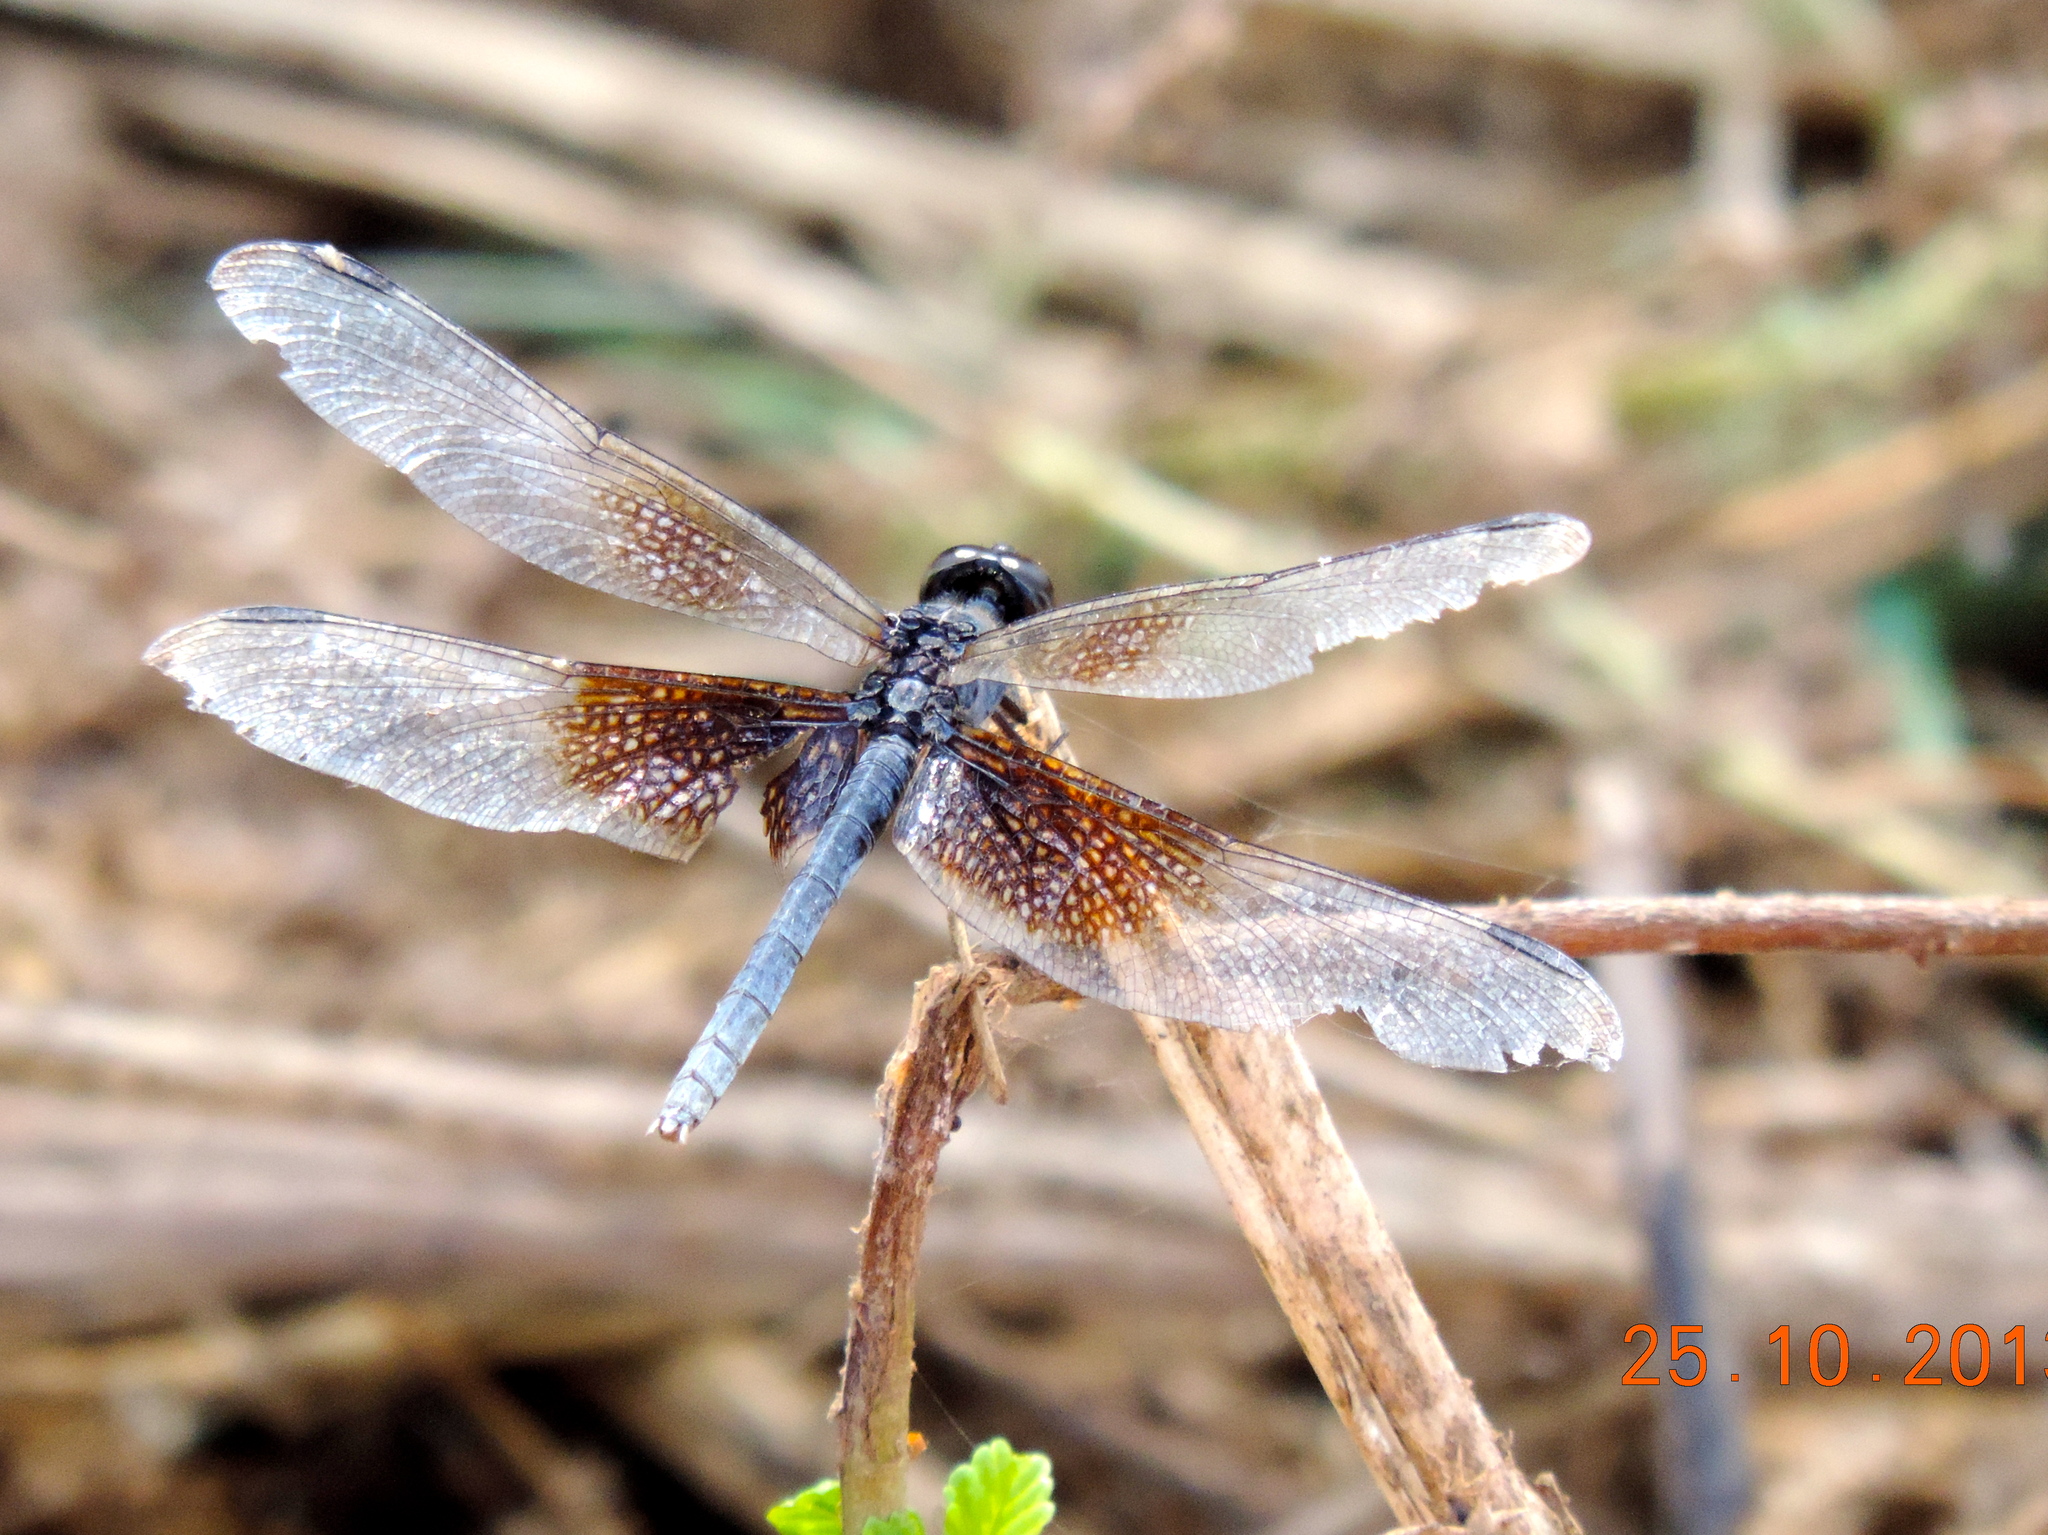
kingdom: Animalia
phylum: Arthropoda
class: Insecta
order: Odonata
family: Libellulidae
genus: Erythrodiplax
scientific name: Erythrodiplax funerea
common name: Black-winged dragonlet
